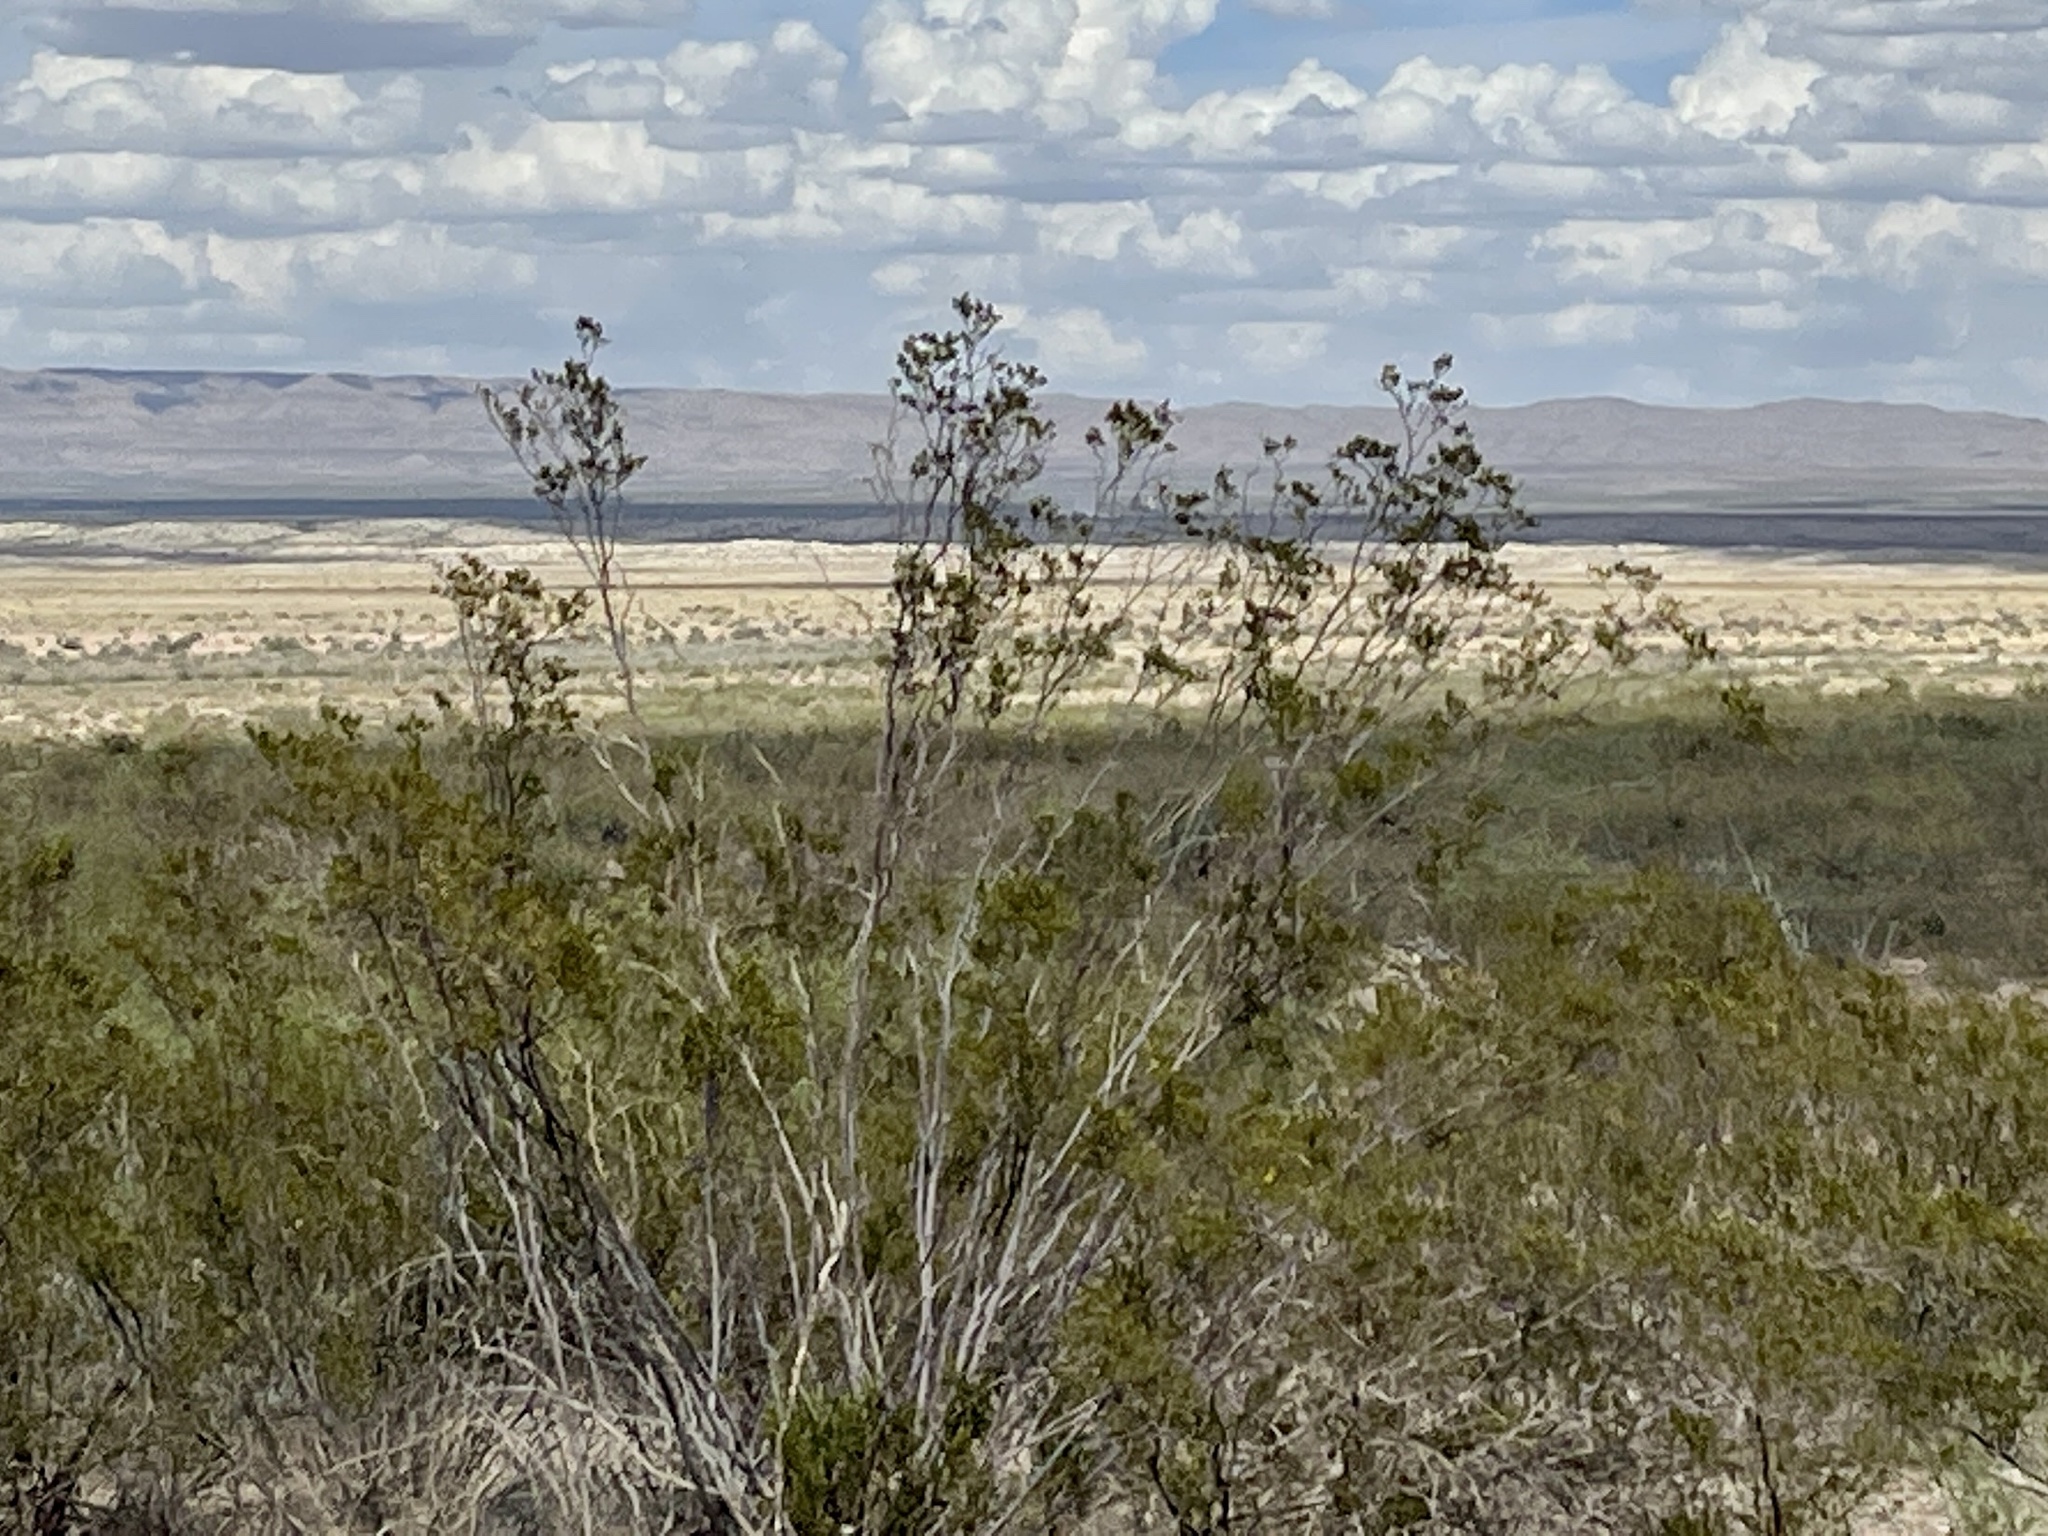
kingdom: Plantae
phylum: Tracheophyta
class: Magnoliopsida
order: Zygophyllales
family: Zygophyllaceae
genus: Larrea
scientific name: Larrea tridentata
